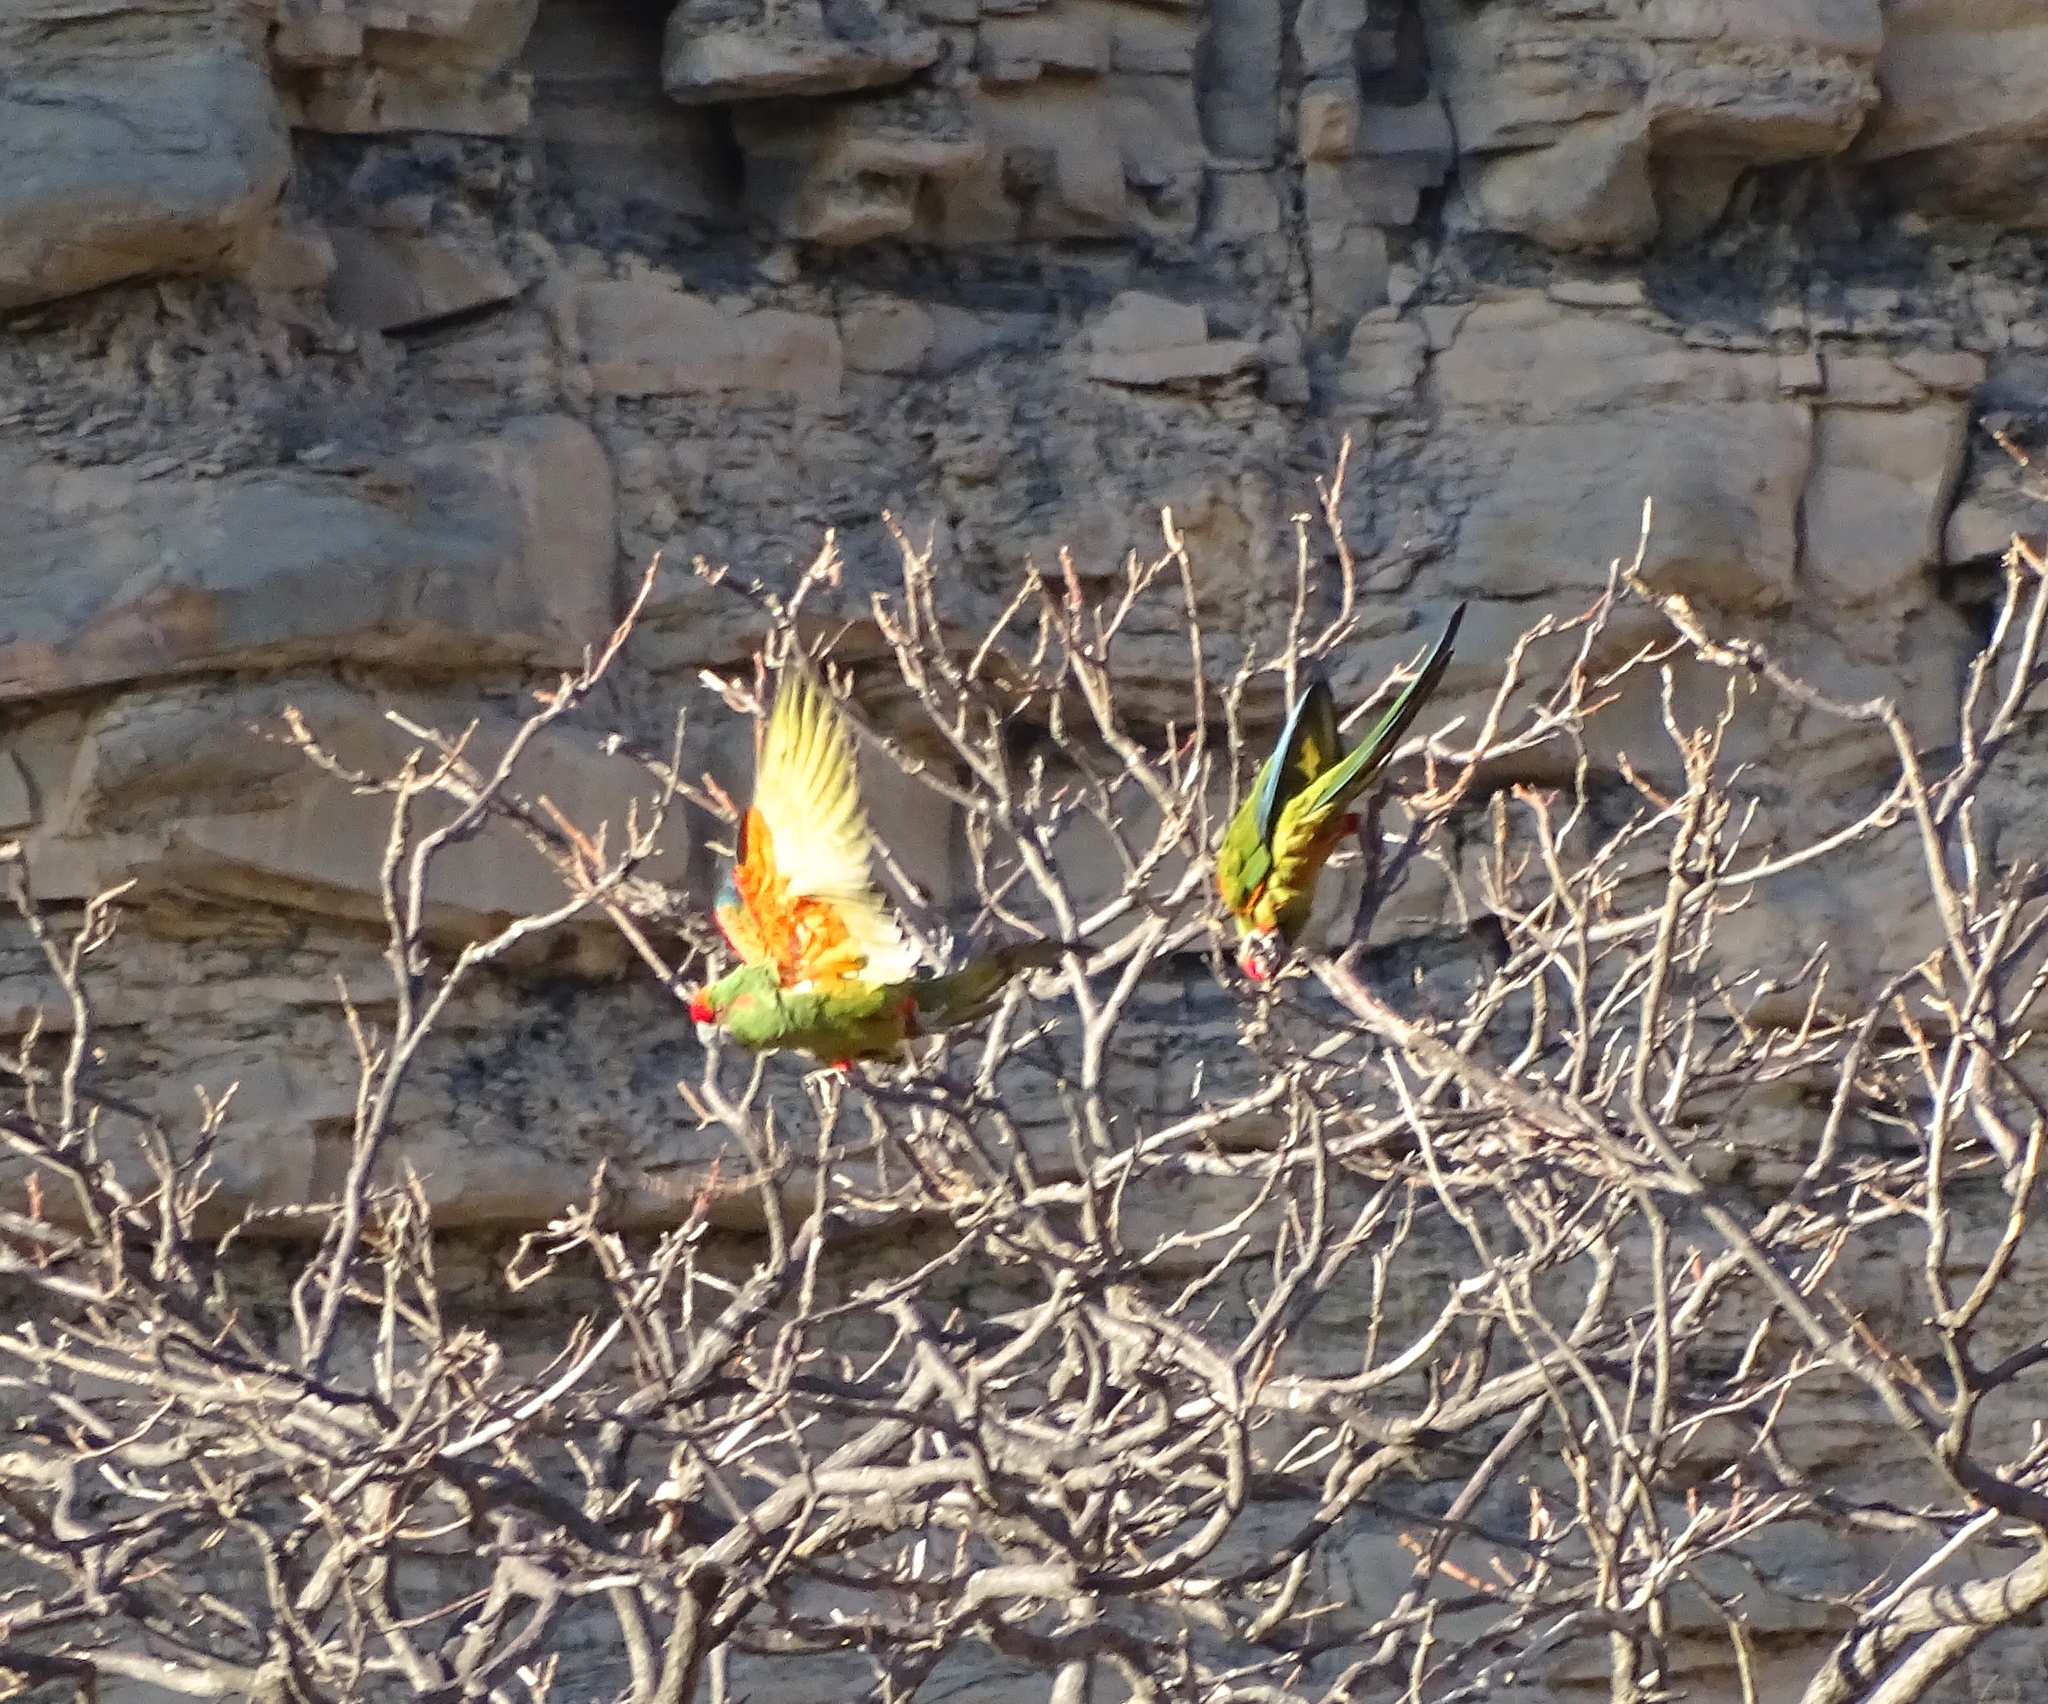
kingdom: Animalia
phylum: Chordata
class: Aves
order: Psittaciformes
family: Psittacidae
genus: Ara
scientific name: Ara rubrogenys
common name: Red-fronted macaw
